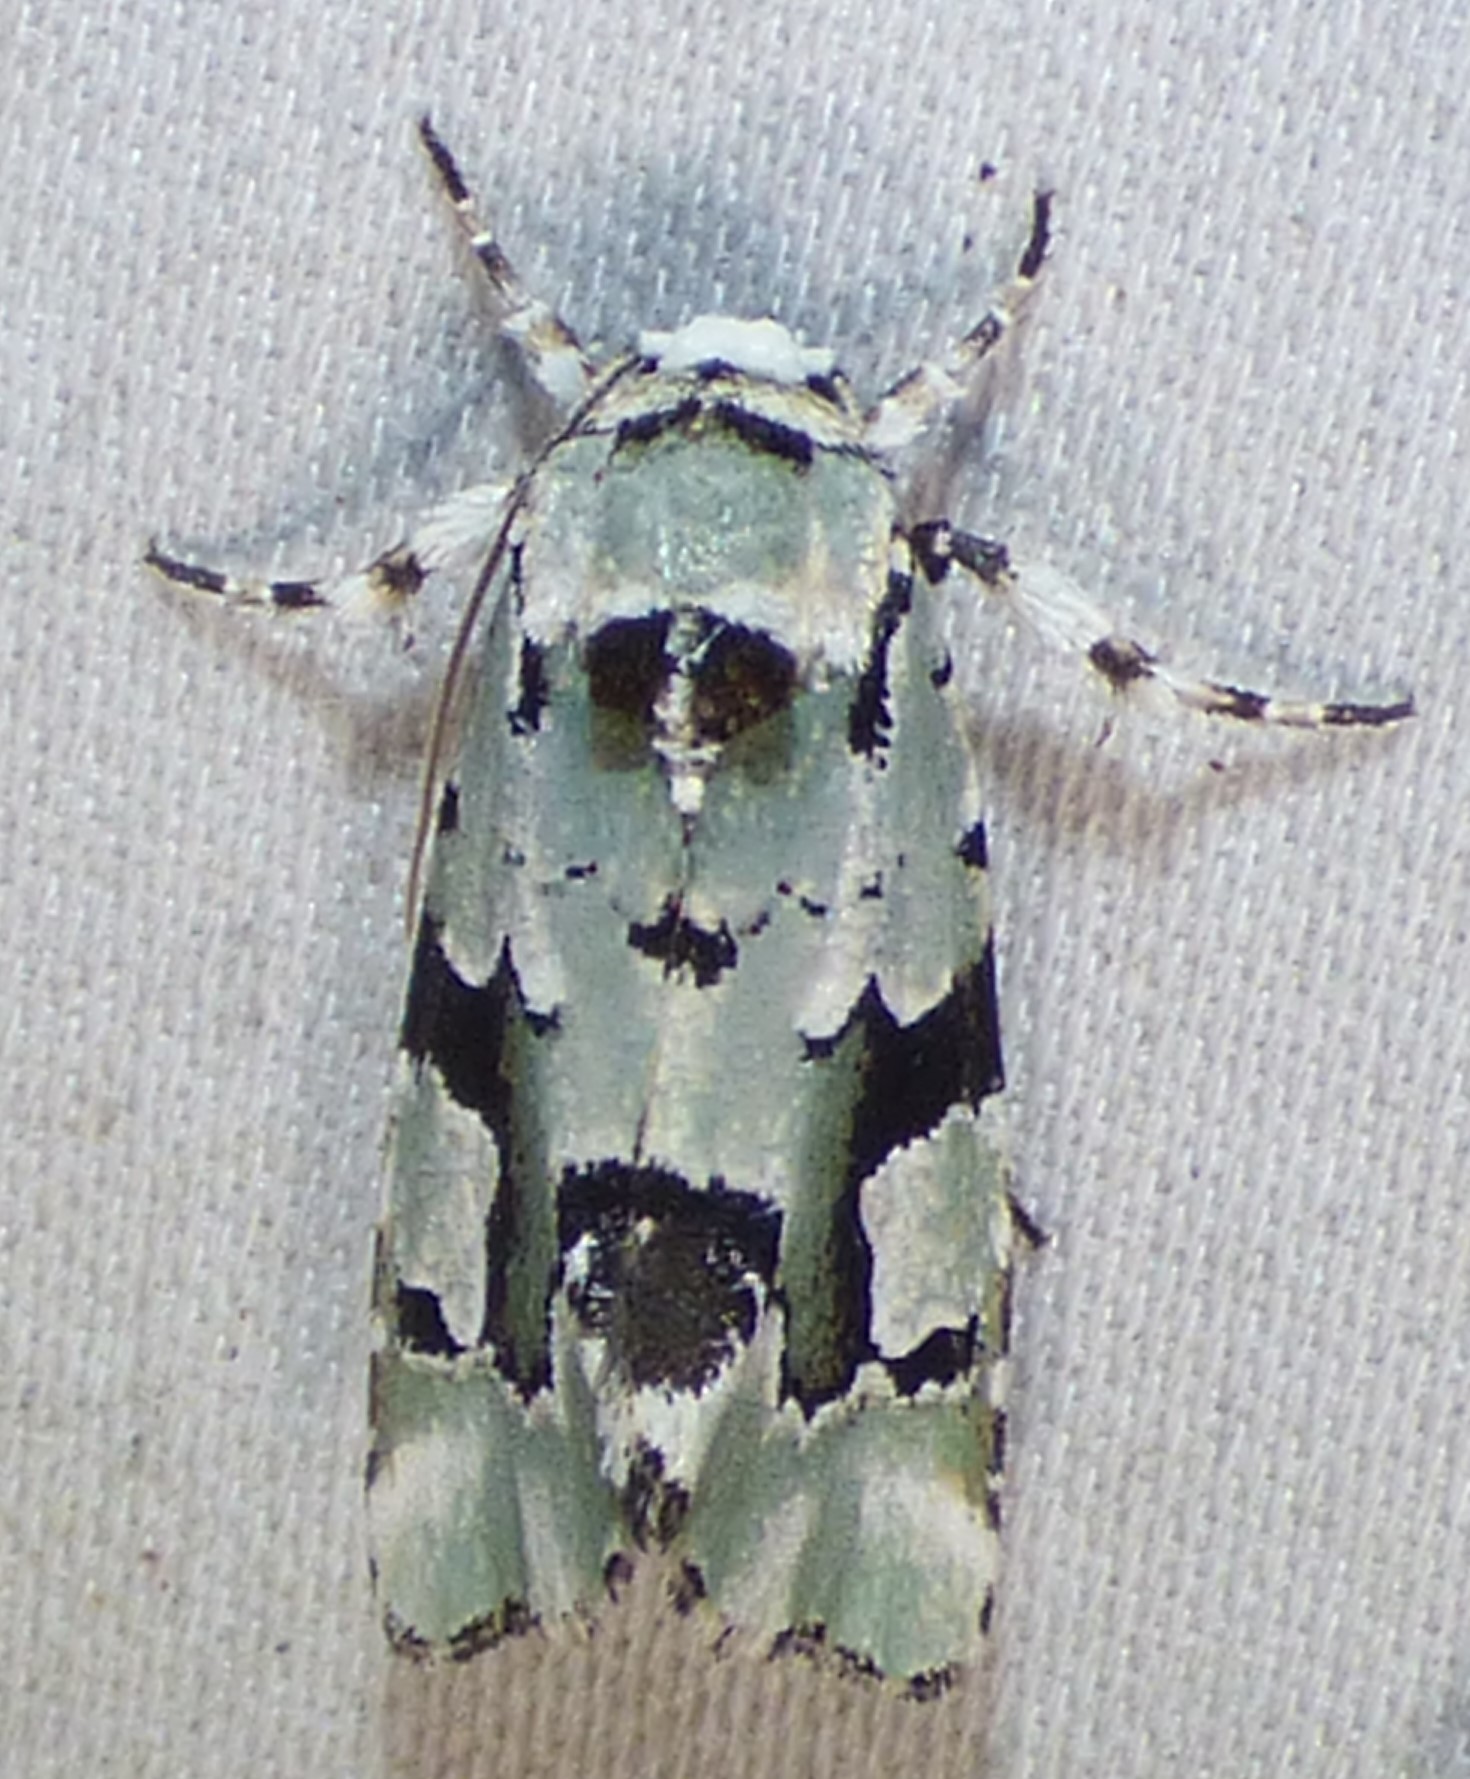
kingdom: Animalia
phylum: Arthropoda
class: Insecta
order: Lepidoptera
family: Noctuidae
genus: Emarginea
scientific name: Emarginea percara
